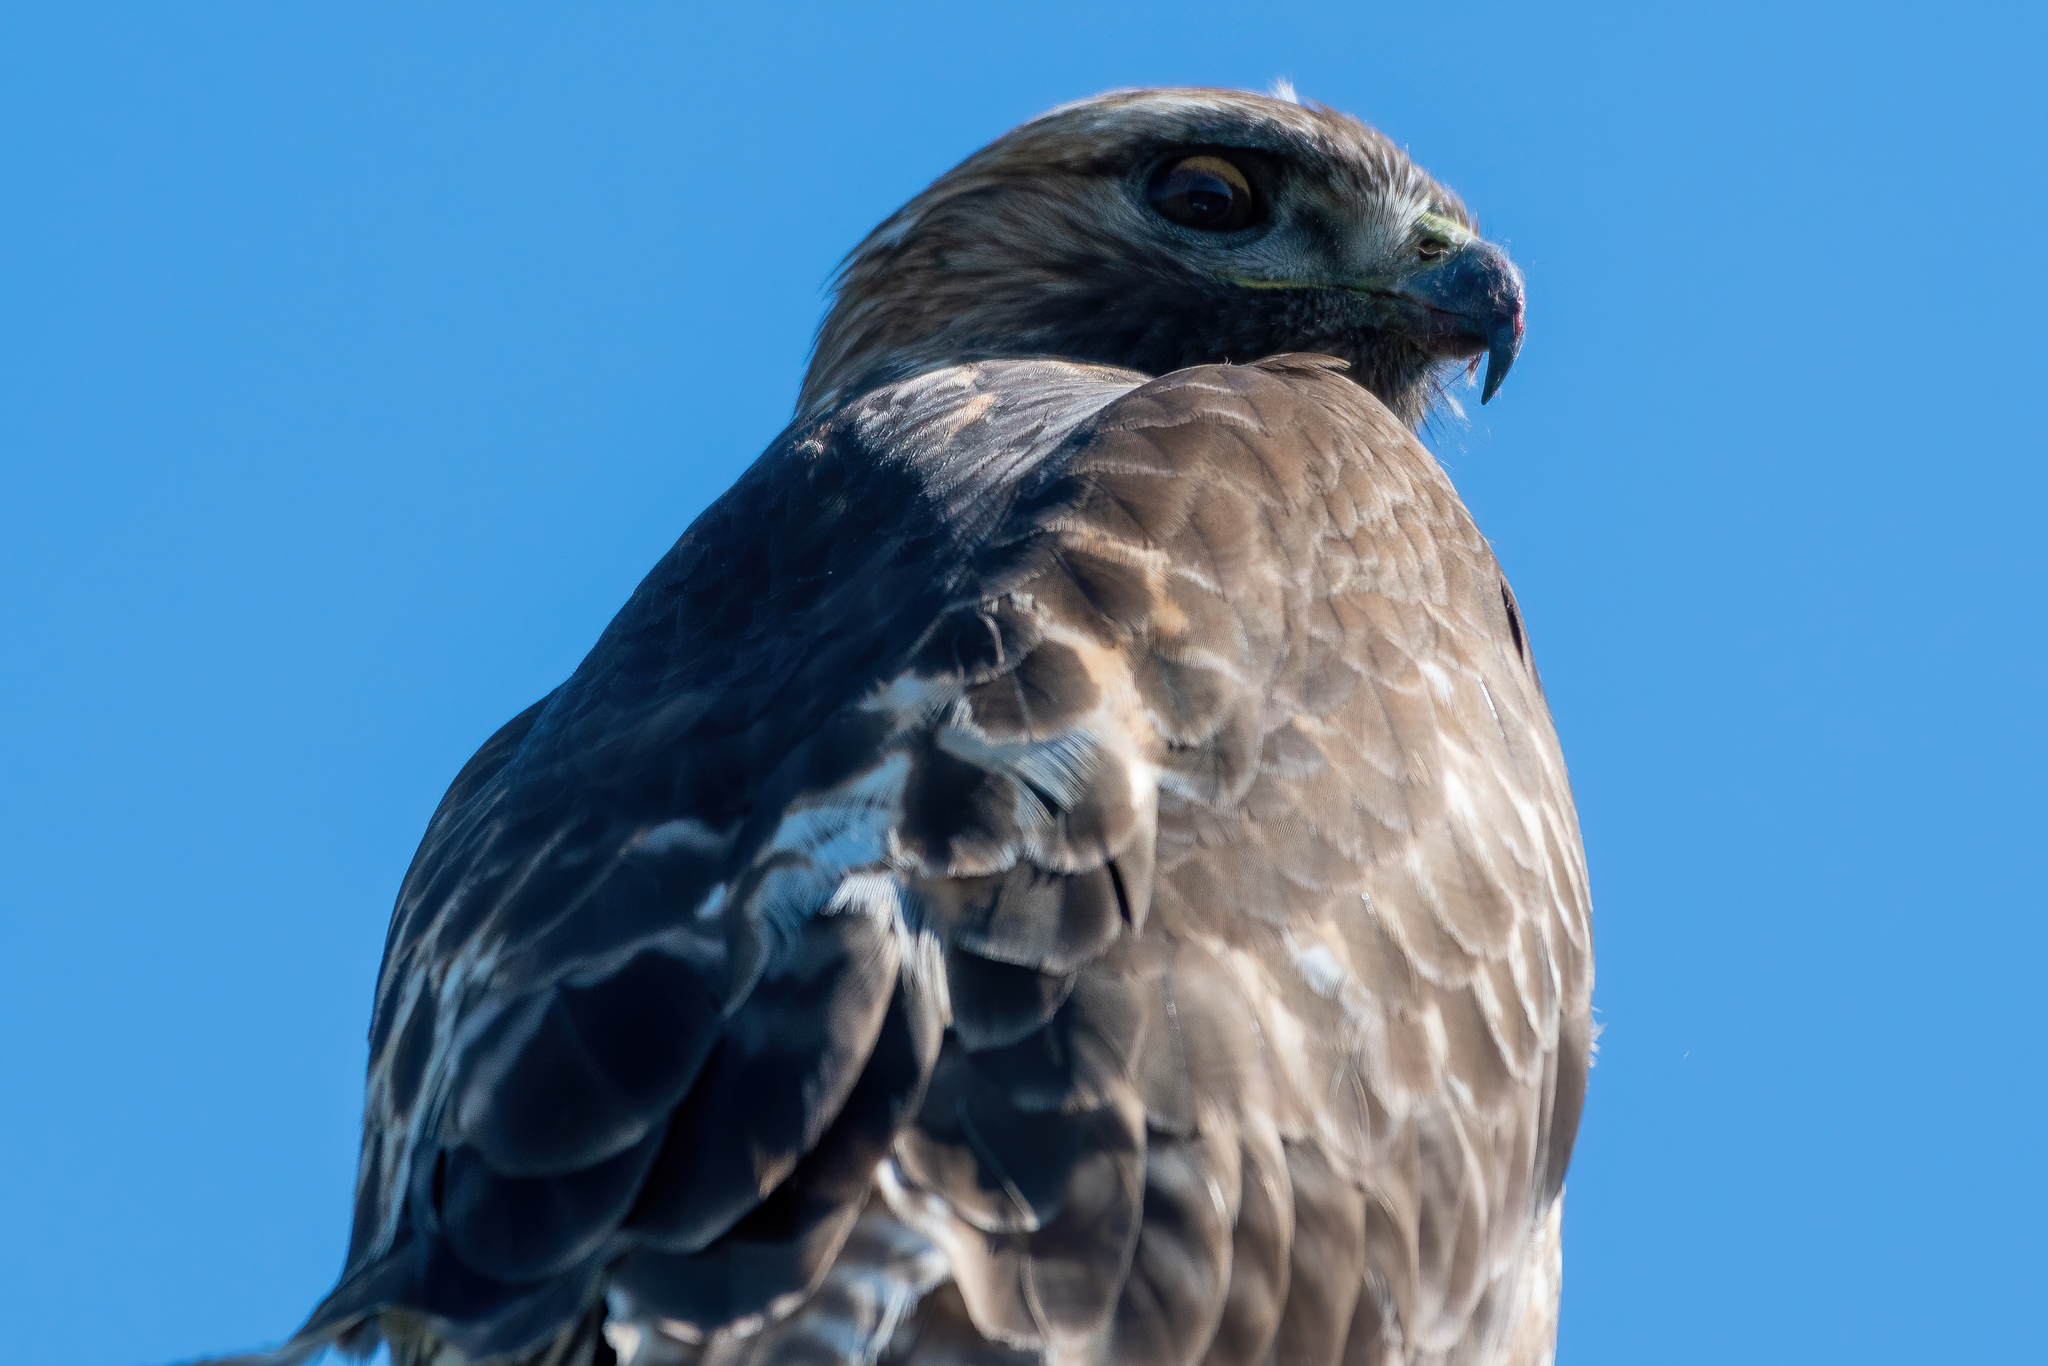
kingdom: Animalia
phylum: Chordata
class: Aves
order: Accipitriformes
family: Accipitridae
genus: Buteo
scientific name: Buteo jamaicensis
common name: Red-tailed hawk
